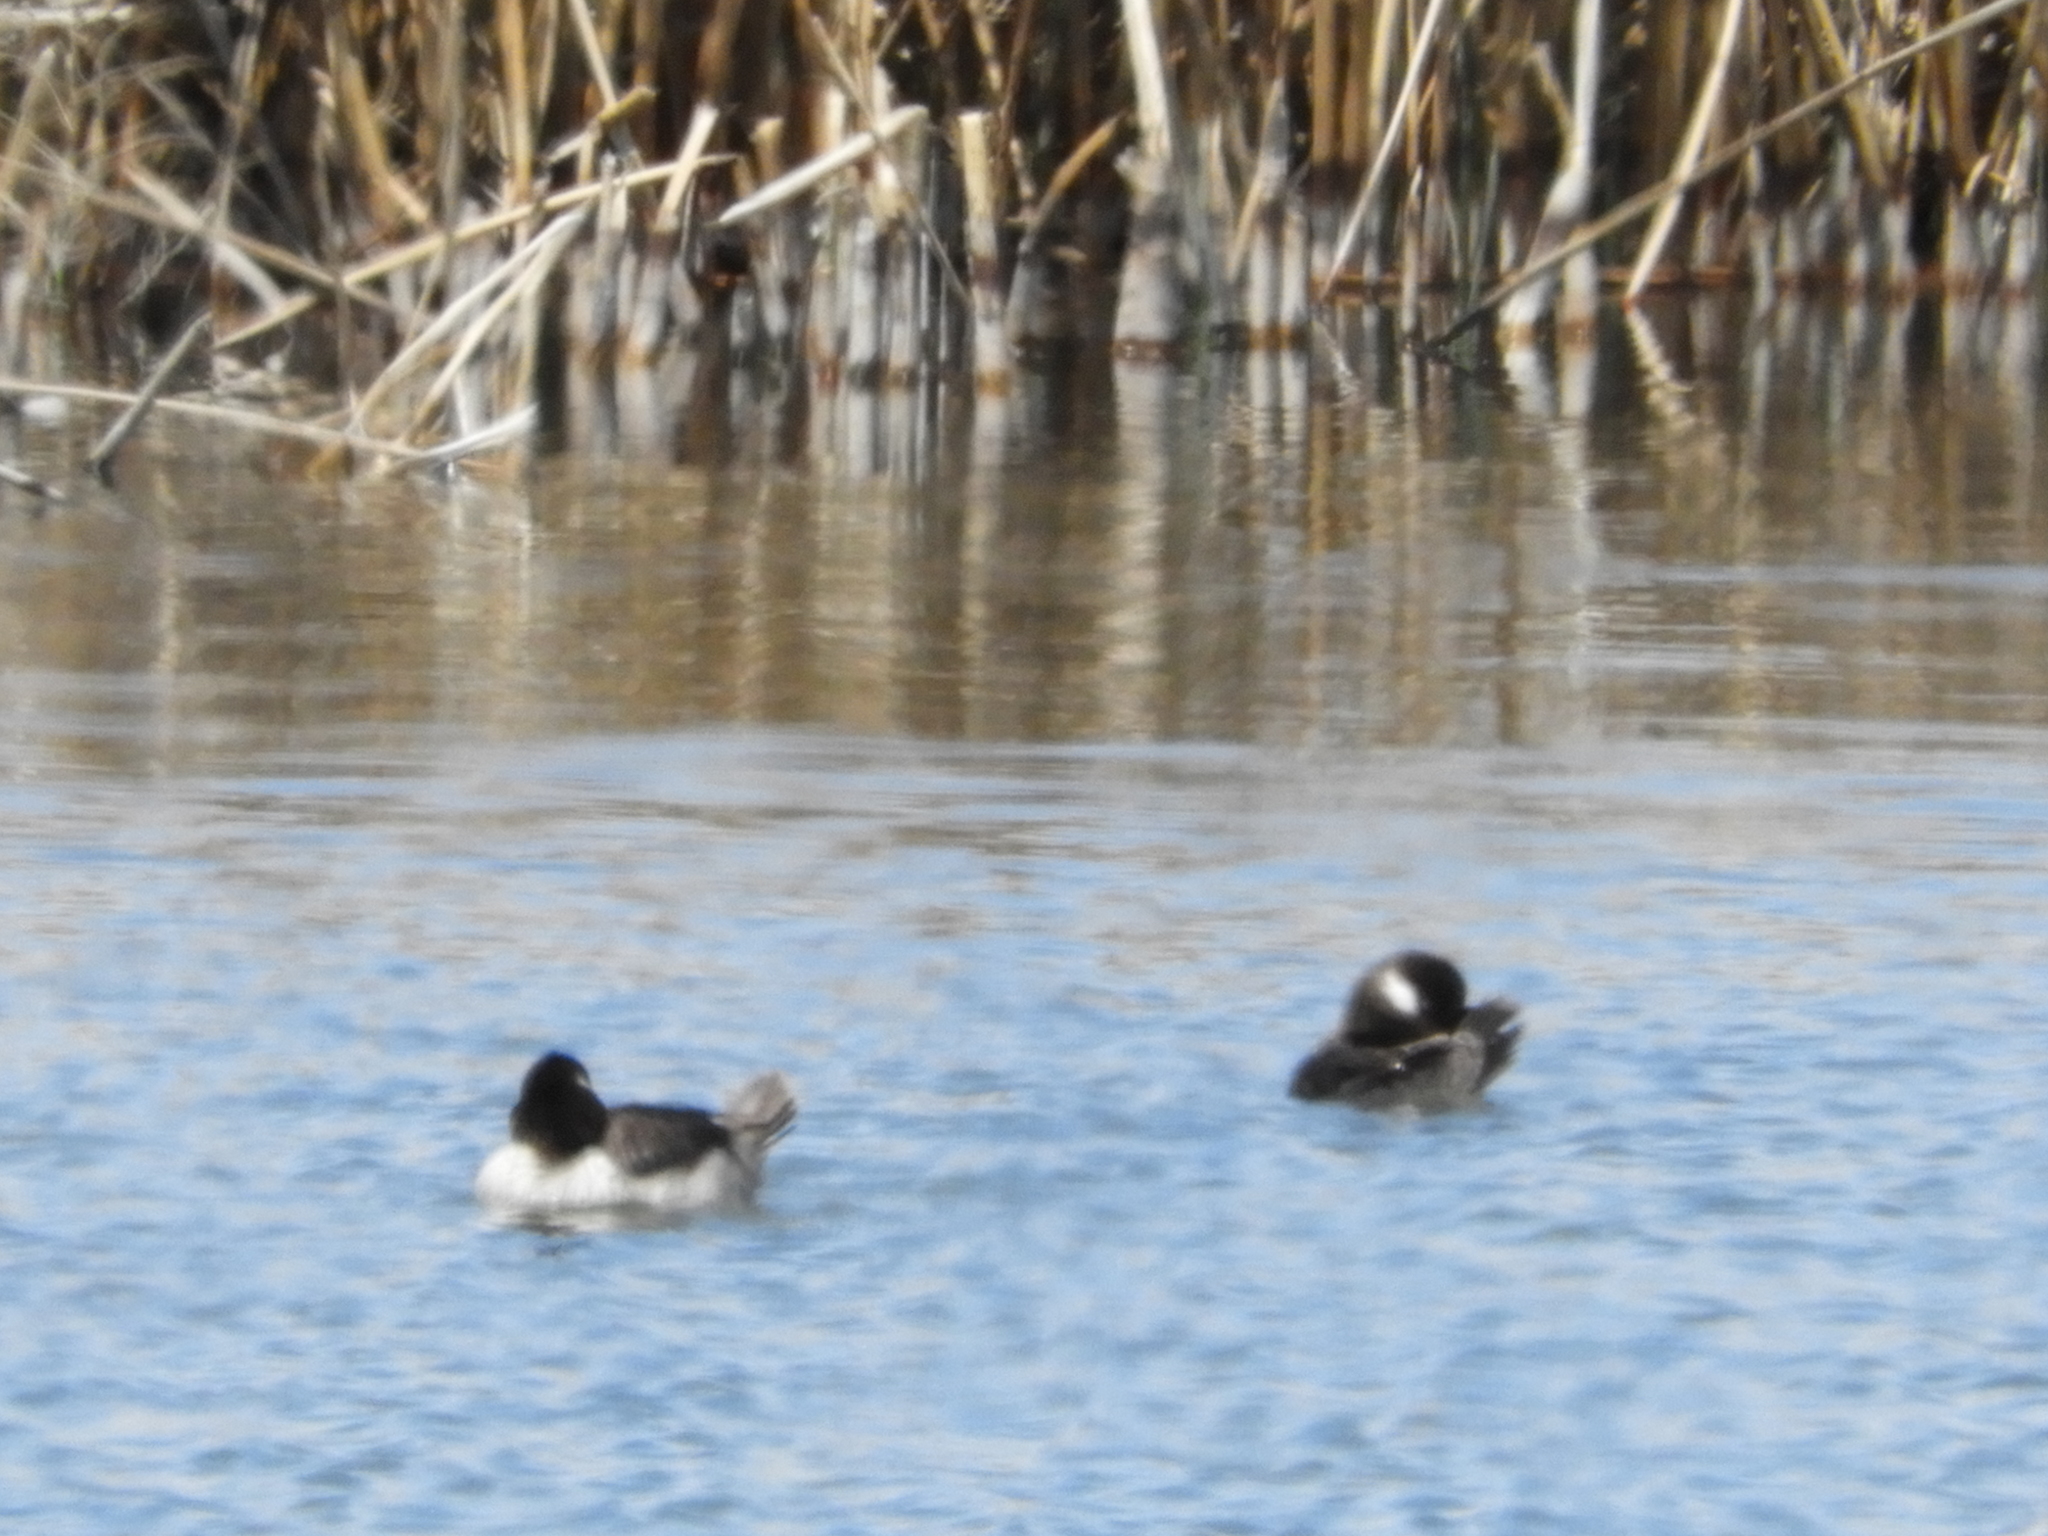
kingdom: Animalia
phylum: Chordata
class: Aves
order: Anseriformes
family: Anatidae
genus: Bucephala
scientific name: Bucephala albeola
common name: Bufflehead
